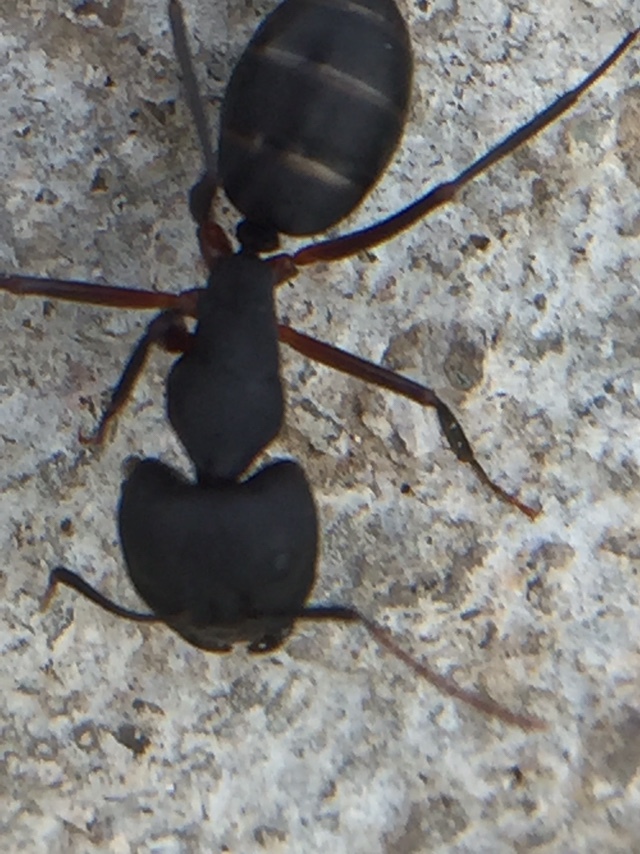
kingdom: Animalia
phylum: Arthropoda
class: Insecta
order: Hymenoptera
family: Formicidae
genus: Camponotus
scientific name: Camponotus compressus
